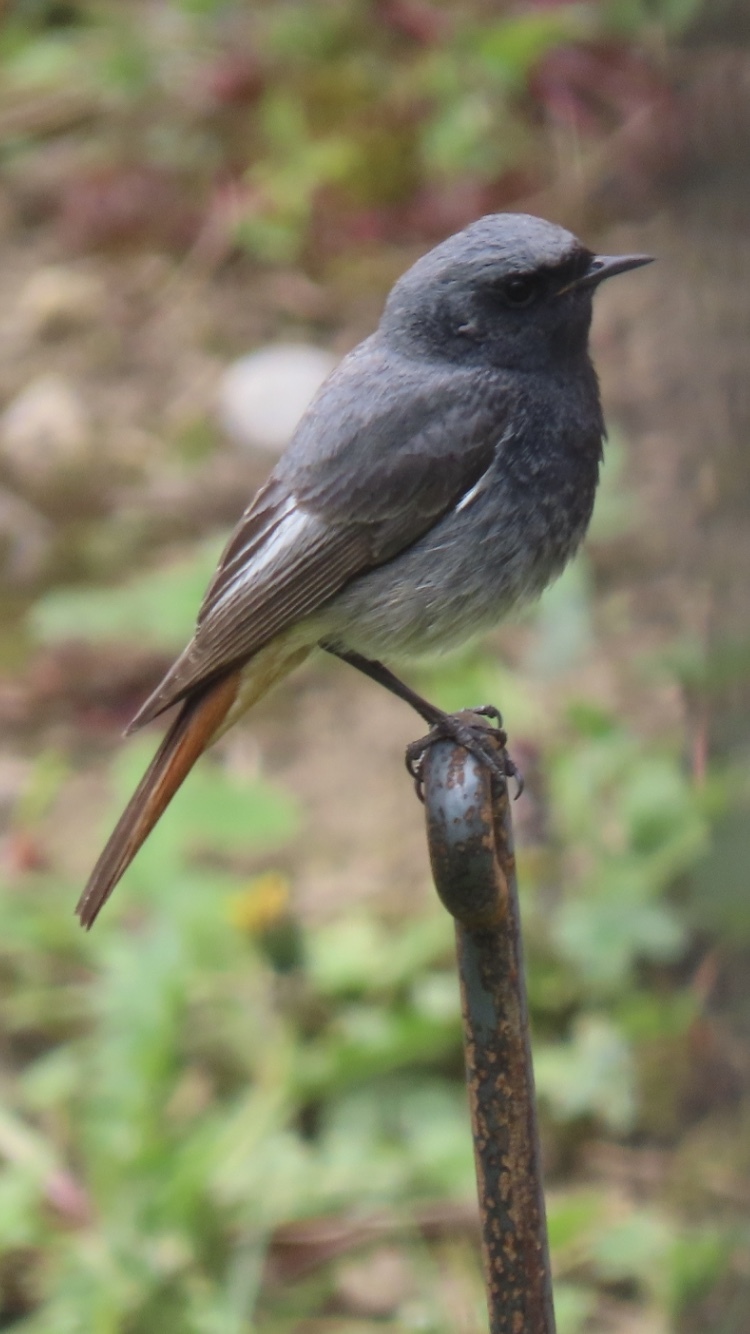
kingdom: Animalia
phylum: Chordata
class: Aves
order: Passeriformes
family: Muscicapidae
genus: Phoenicurus
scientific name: Phoenicurus ochruros
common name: Black redstart
